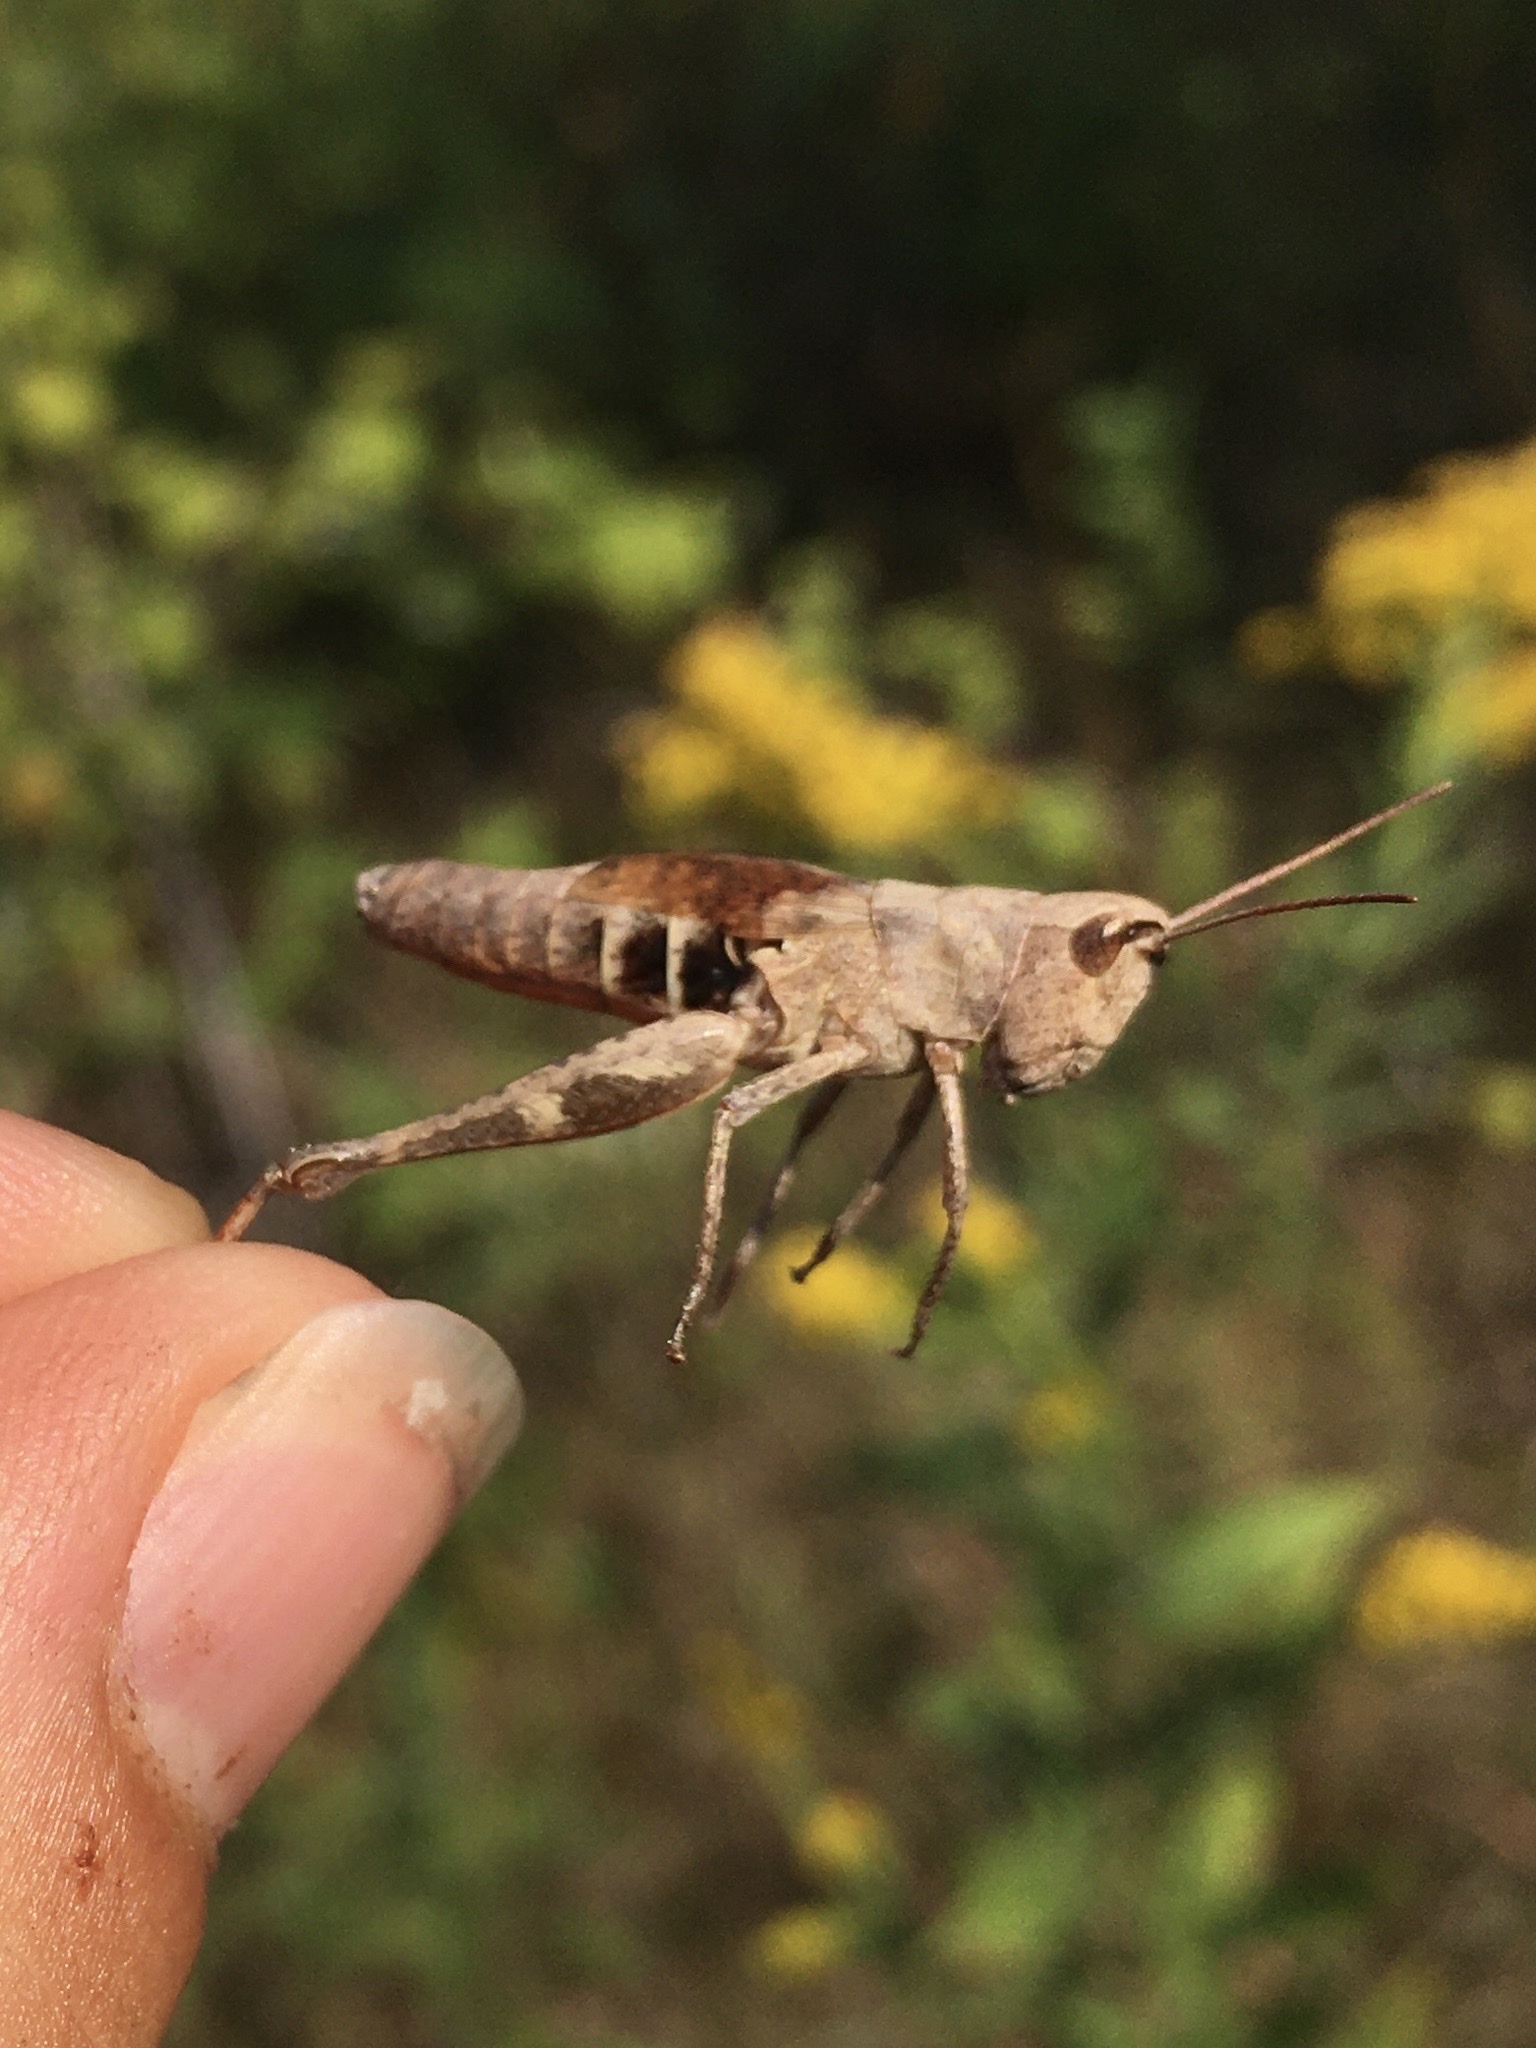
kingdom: Animalia
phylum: Arthropoda
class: Insecta
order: Orthoptera
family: Acrididae
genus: Chloealtis
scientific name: Chloealtis conspersa
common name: Sprinkled broad-winged grasshopper
